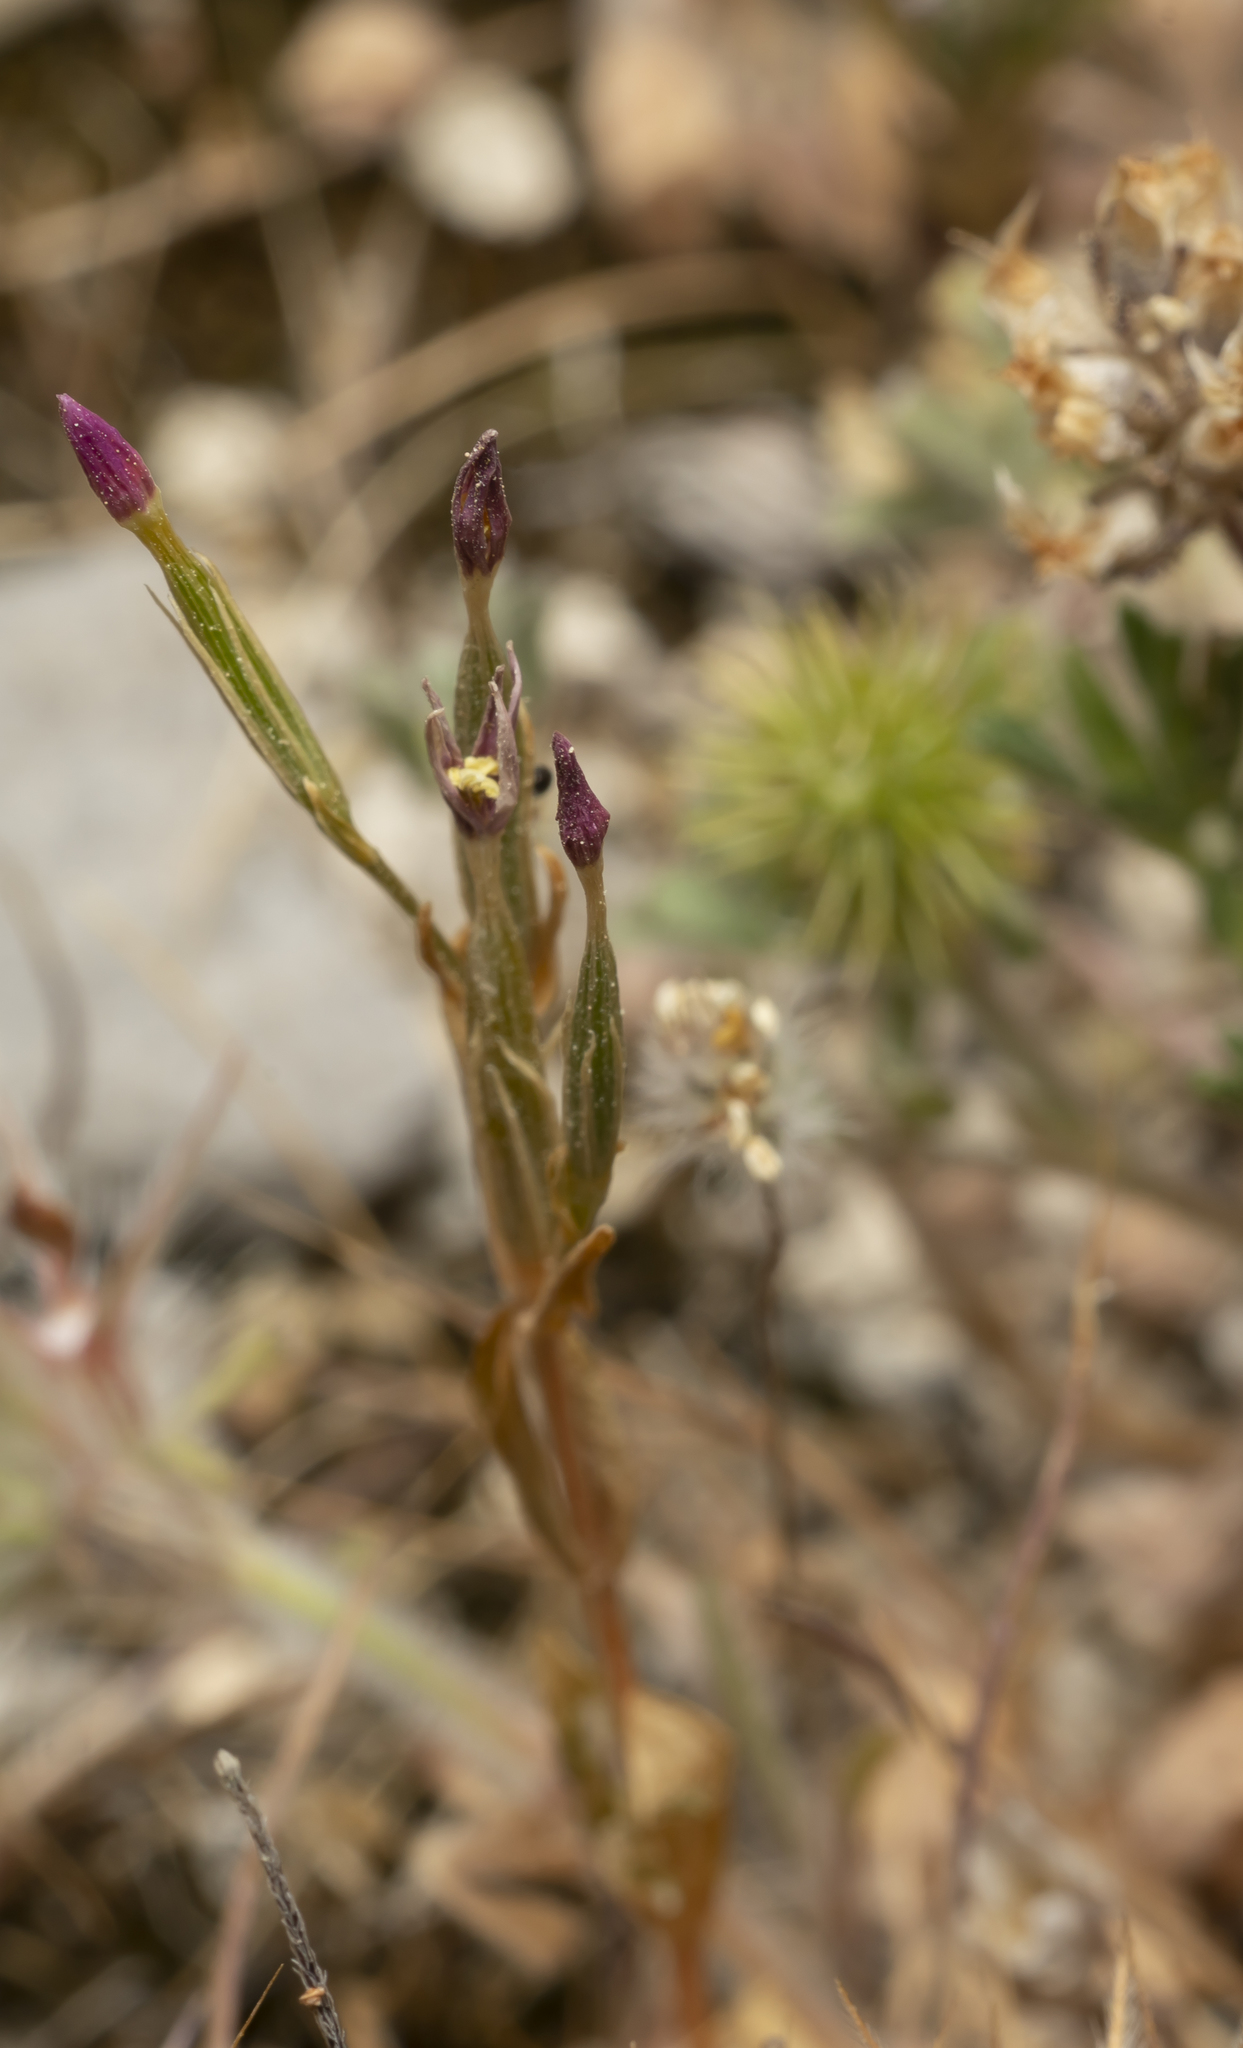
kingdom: Plantae
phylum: Tracheophyta
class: Magnoliopsida
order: Gentianales
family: Gentianaceae
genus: Centaurium
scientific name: Centaurium
